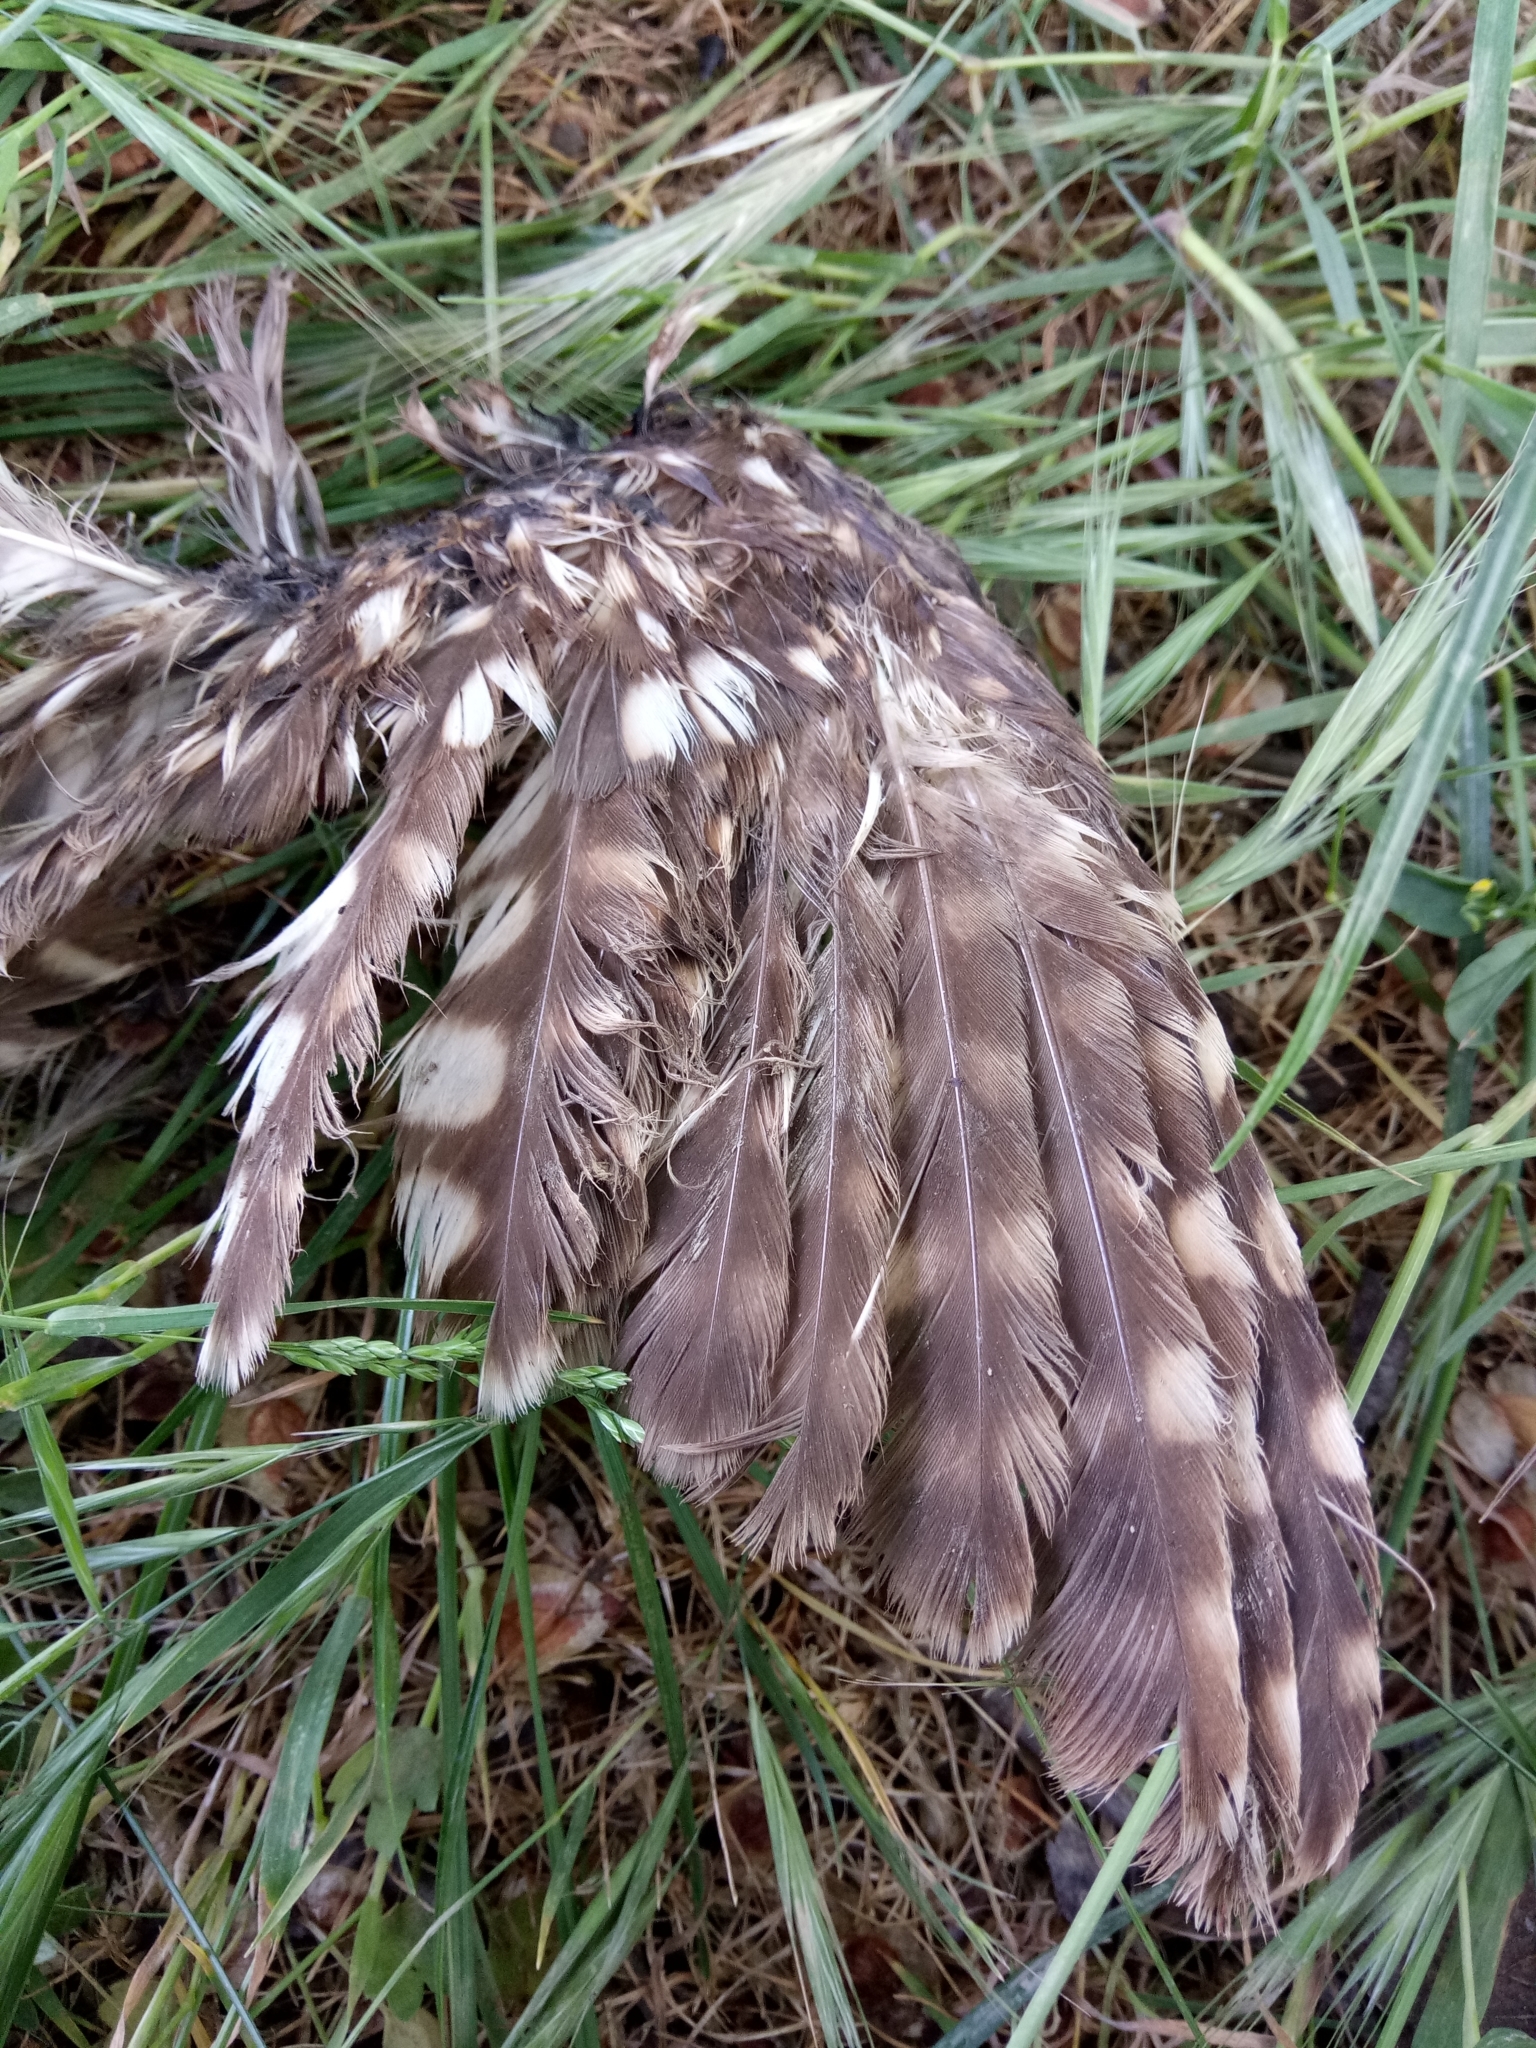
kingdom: Animalia
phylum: Chordata
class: Aves
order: Strigiformes
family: Strigidae
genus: Athene
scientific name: Athene noctua
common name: Little owl
